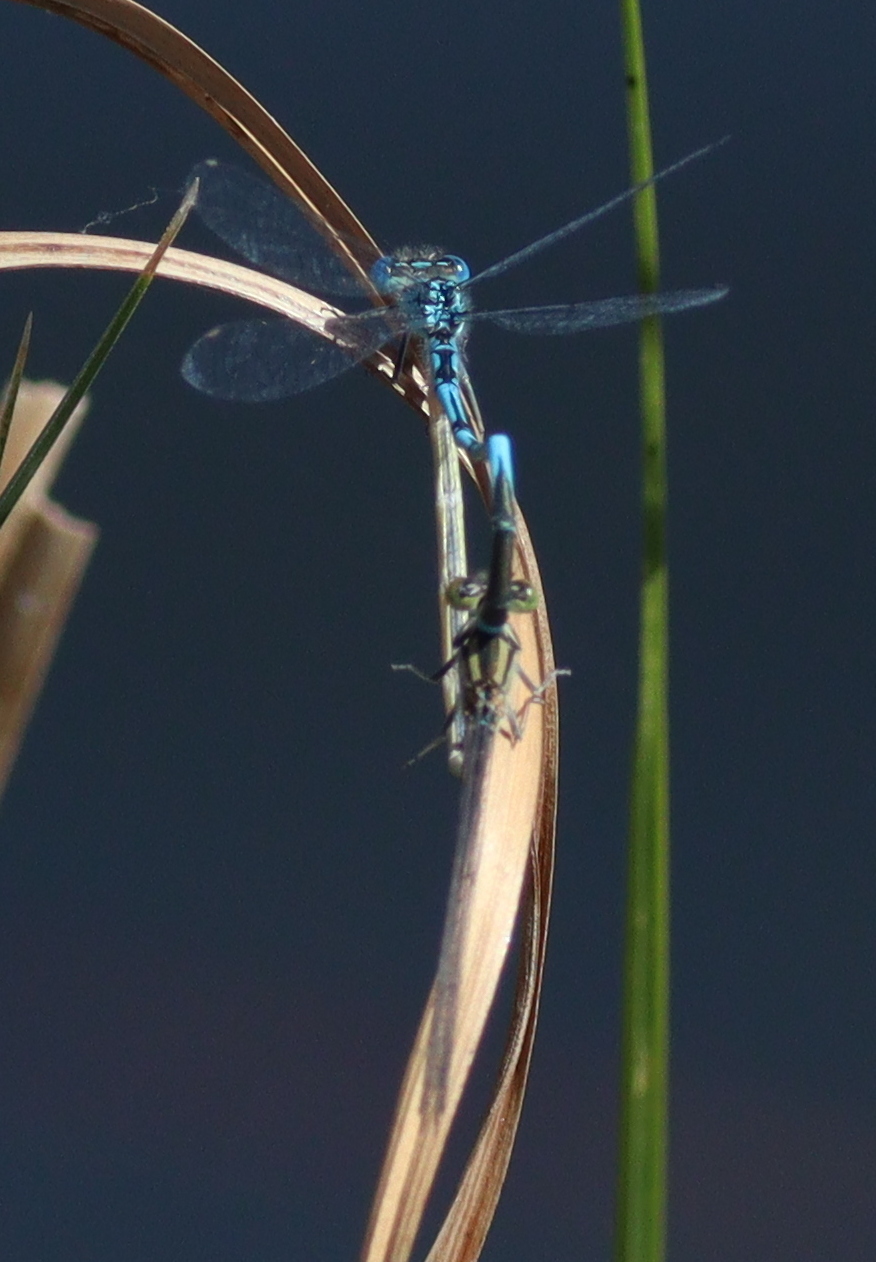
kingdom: Animalia
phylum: Arthropoda
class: Insecta
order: Odonata
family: Coenagrionidae
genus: Erythromma
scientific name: Erythromma lindenii
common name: Blue-eye
